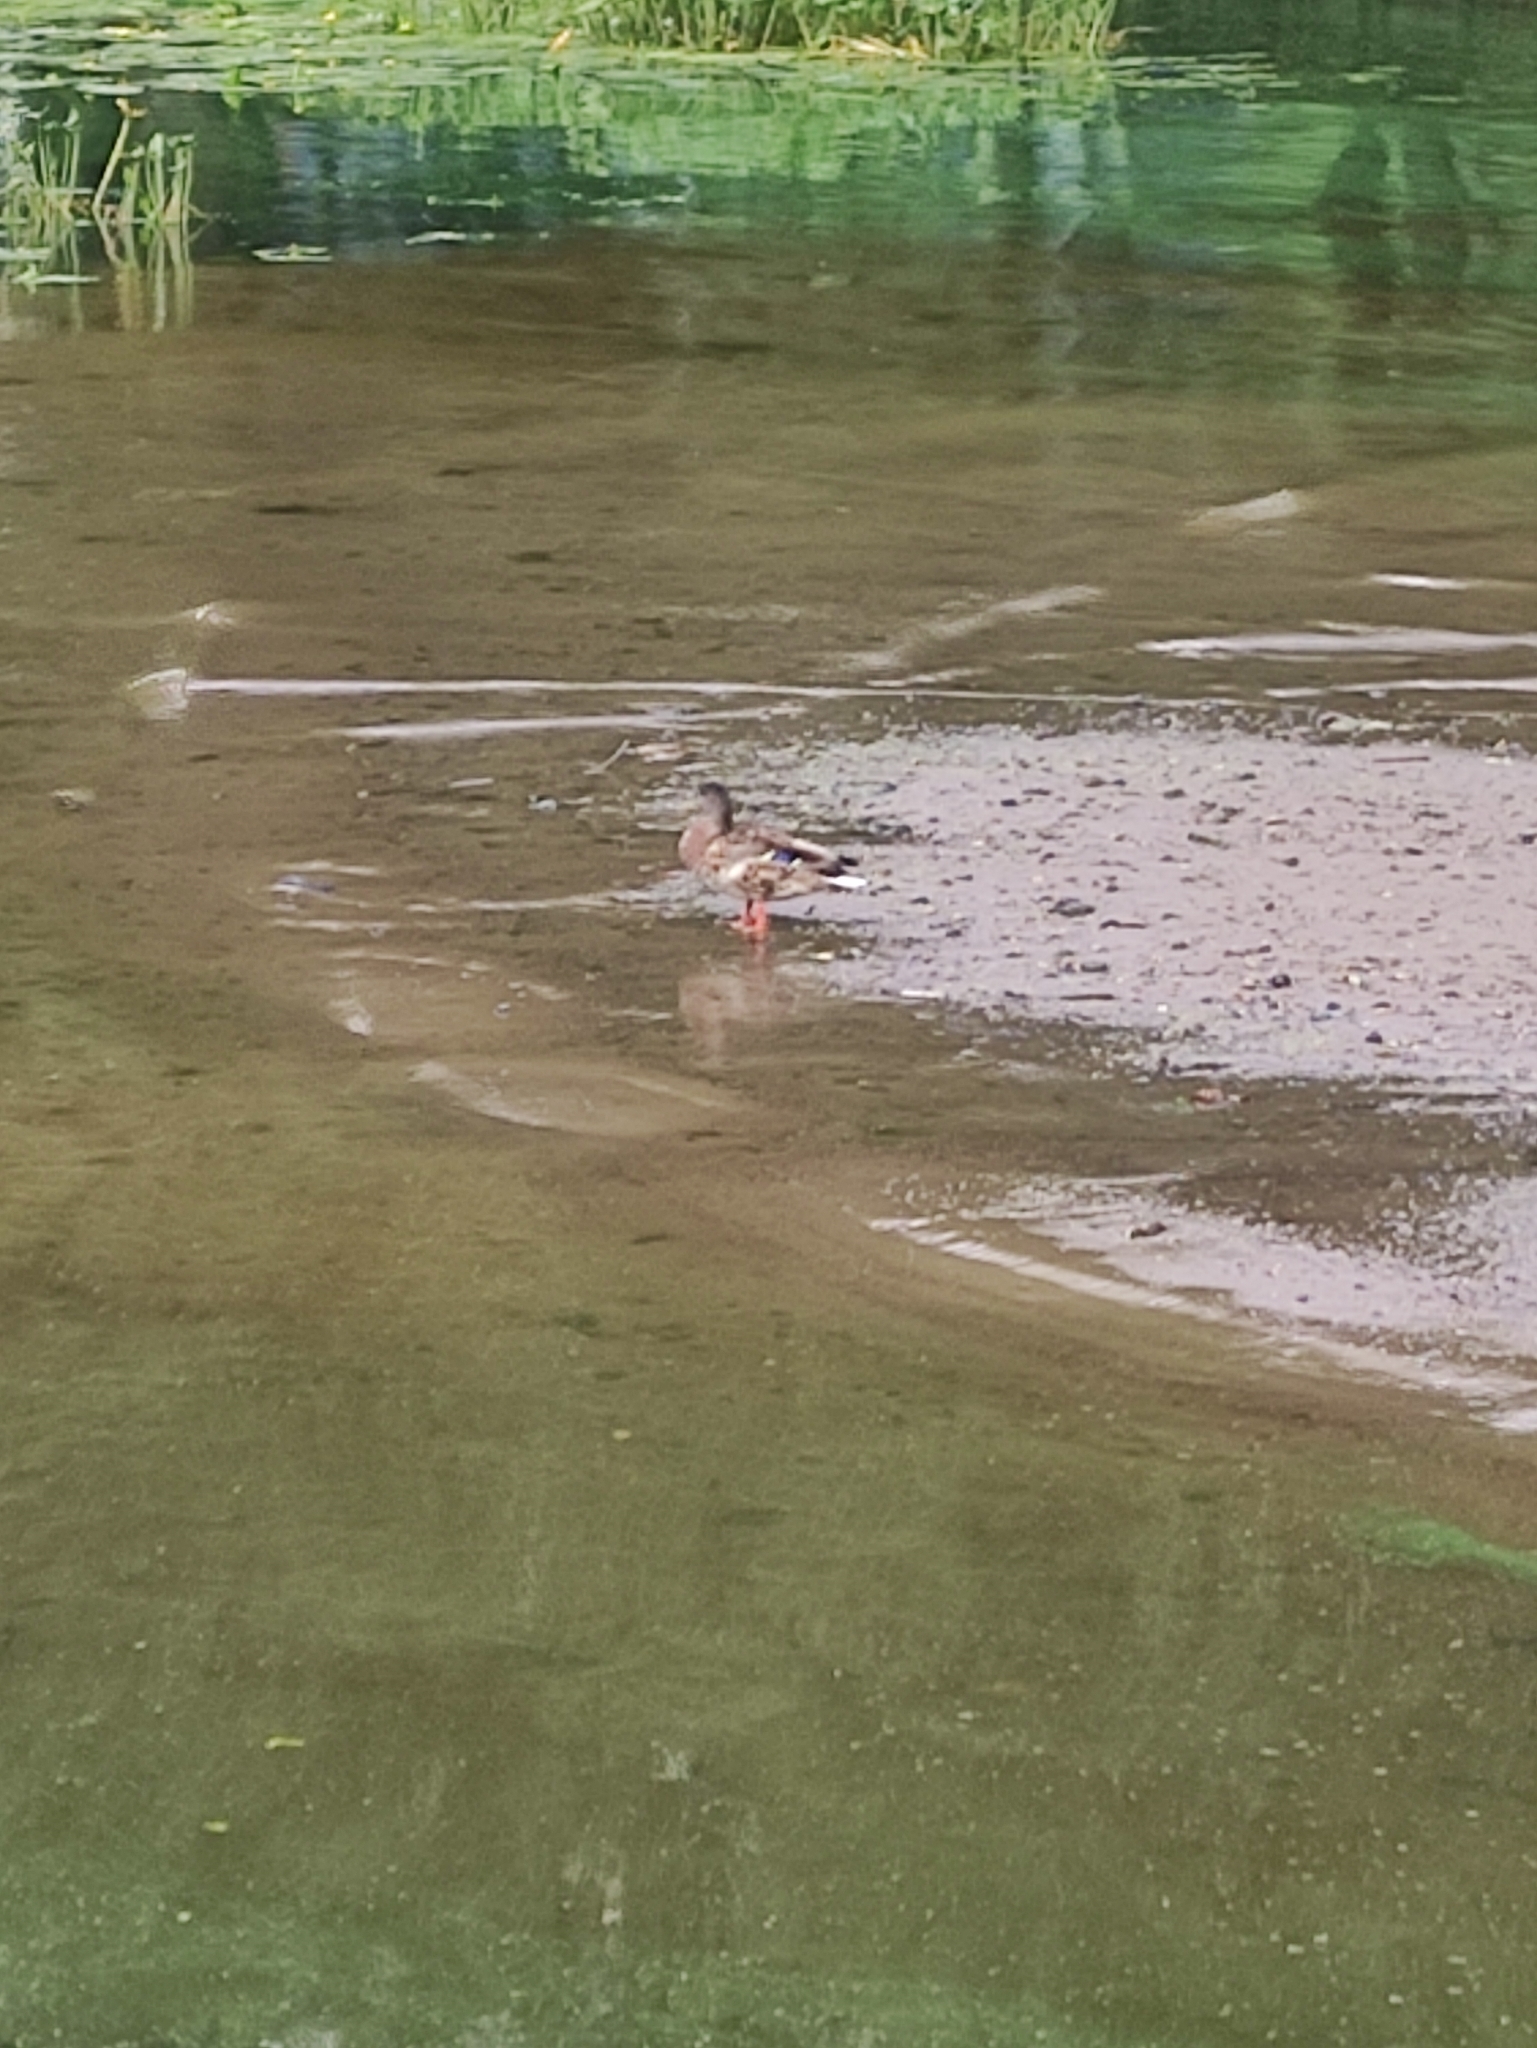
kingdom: Animalia
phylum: Chordata
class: Aves
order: Anseriformes
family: Anatidae
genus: Anas
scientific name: Anas platyrhynchos
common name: Mallard
